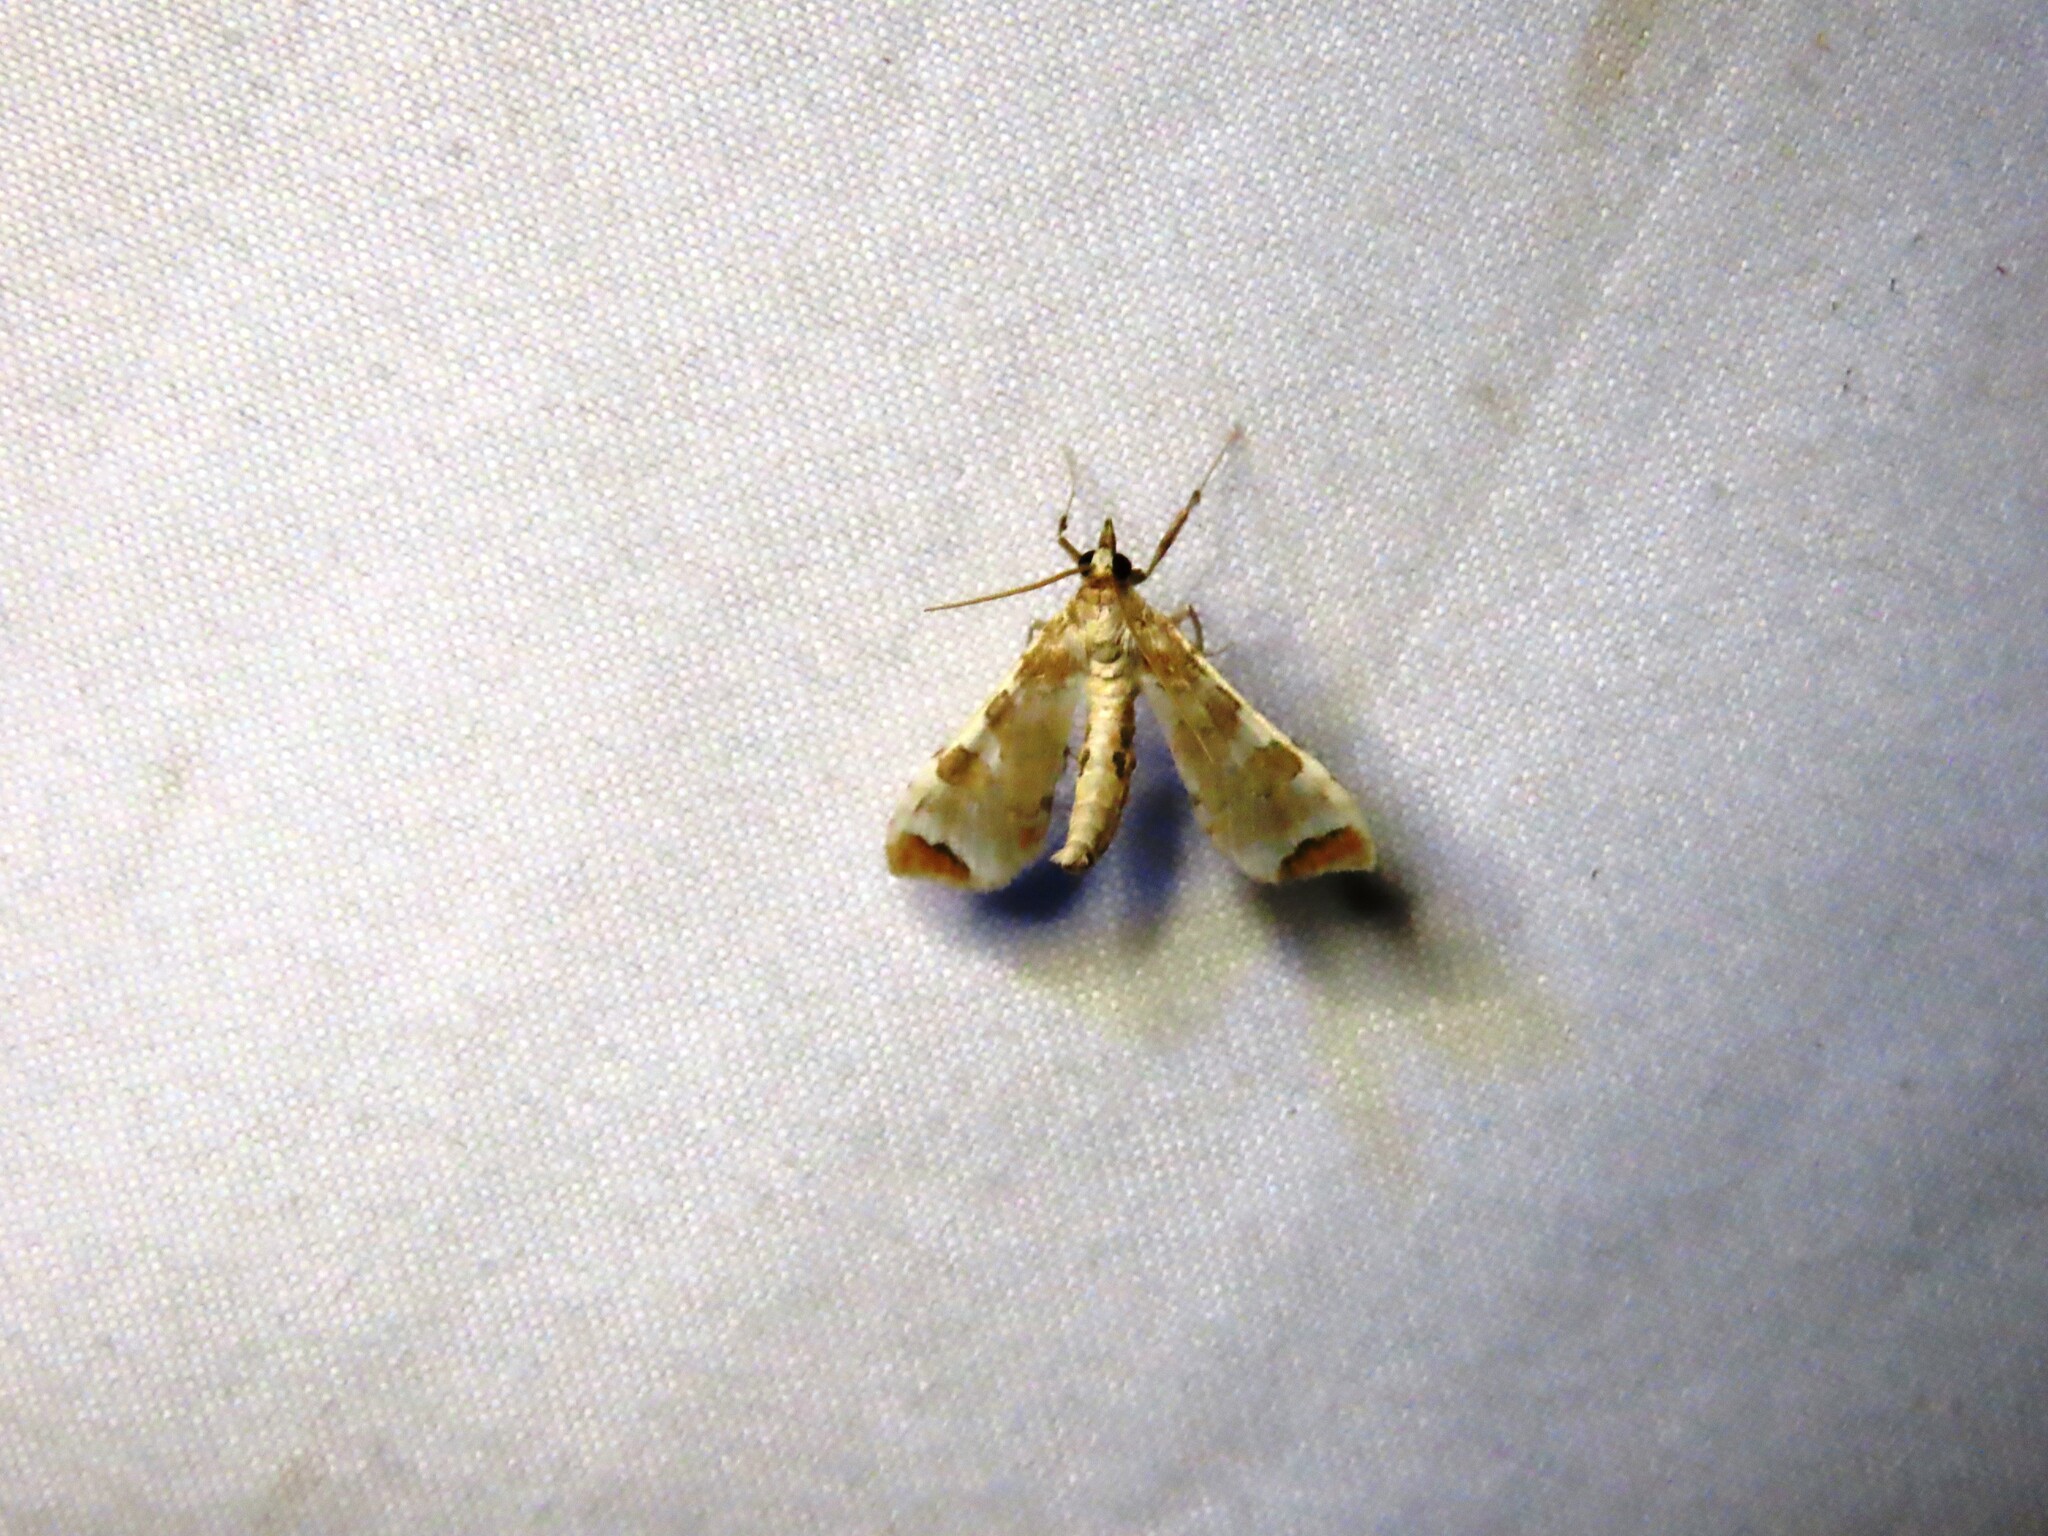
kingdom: Animalia
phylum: Arthropoda
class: Insecta
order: Lepidoptera
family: Crambidae
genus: Sceliodes
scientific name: Sceliodes cordalis
